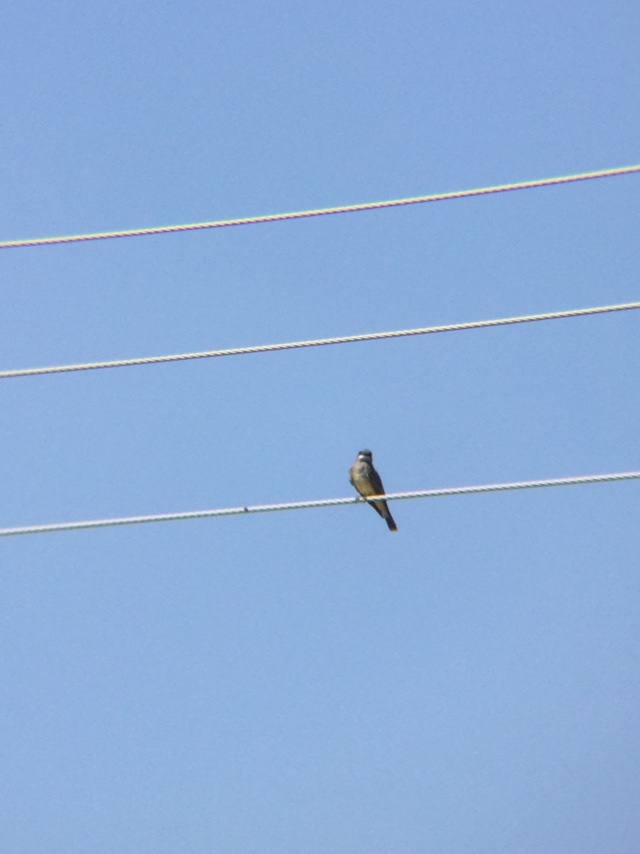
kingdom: Animalia
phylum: Chordata
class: Aves
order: Passeriformes
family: Tyrannidae
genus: Tyrannus
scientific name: Tyrannus vociferans
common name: Cassin's kingbird
